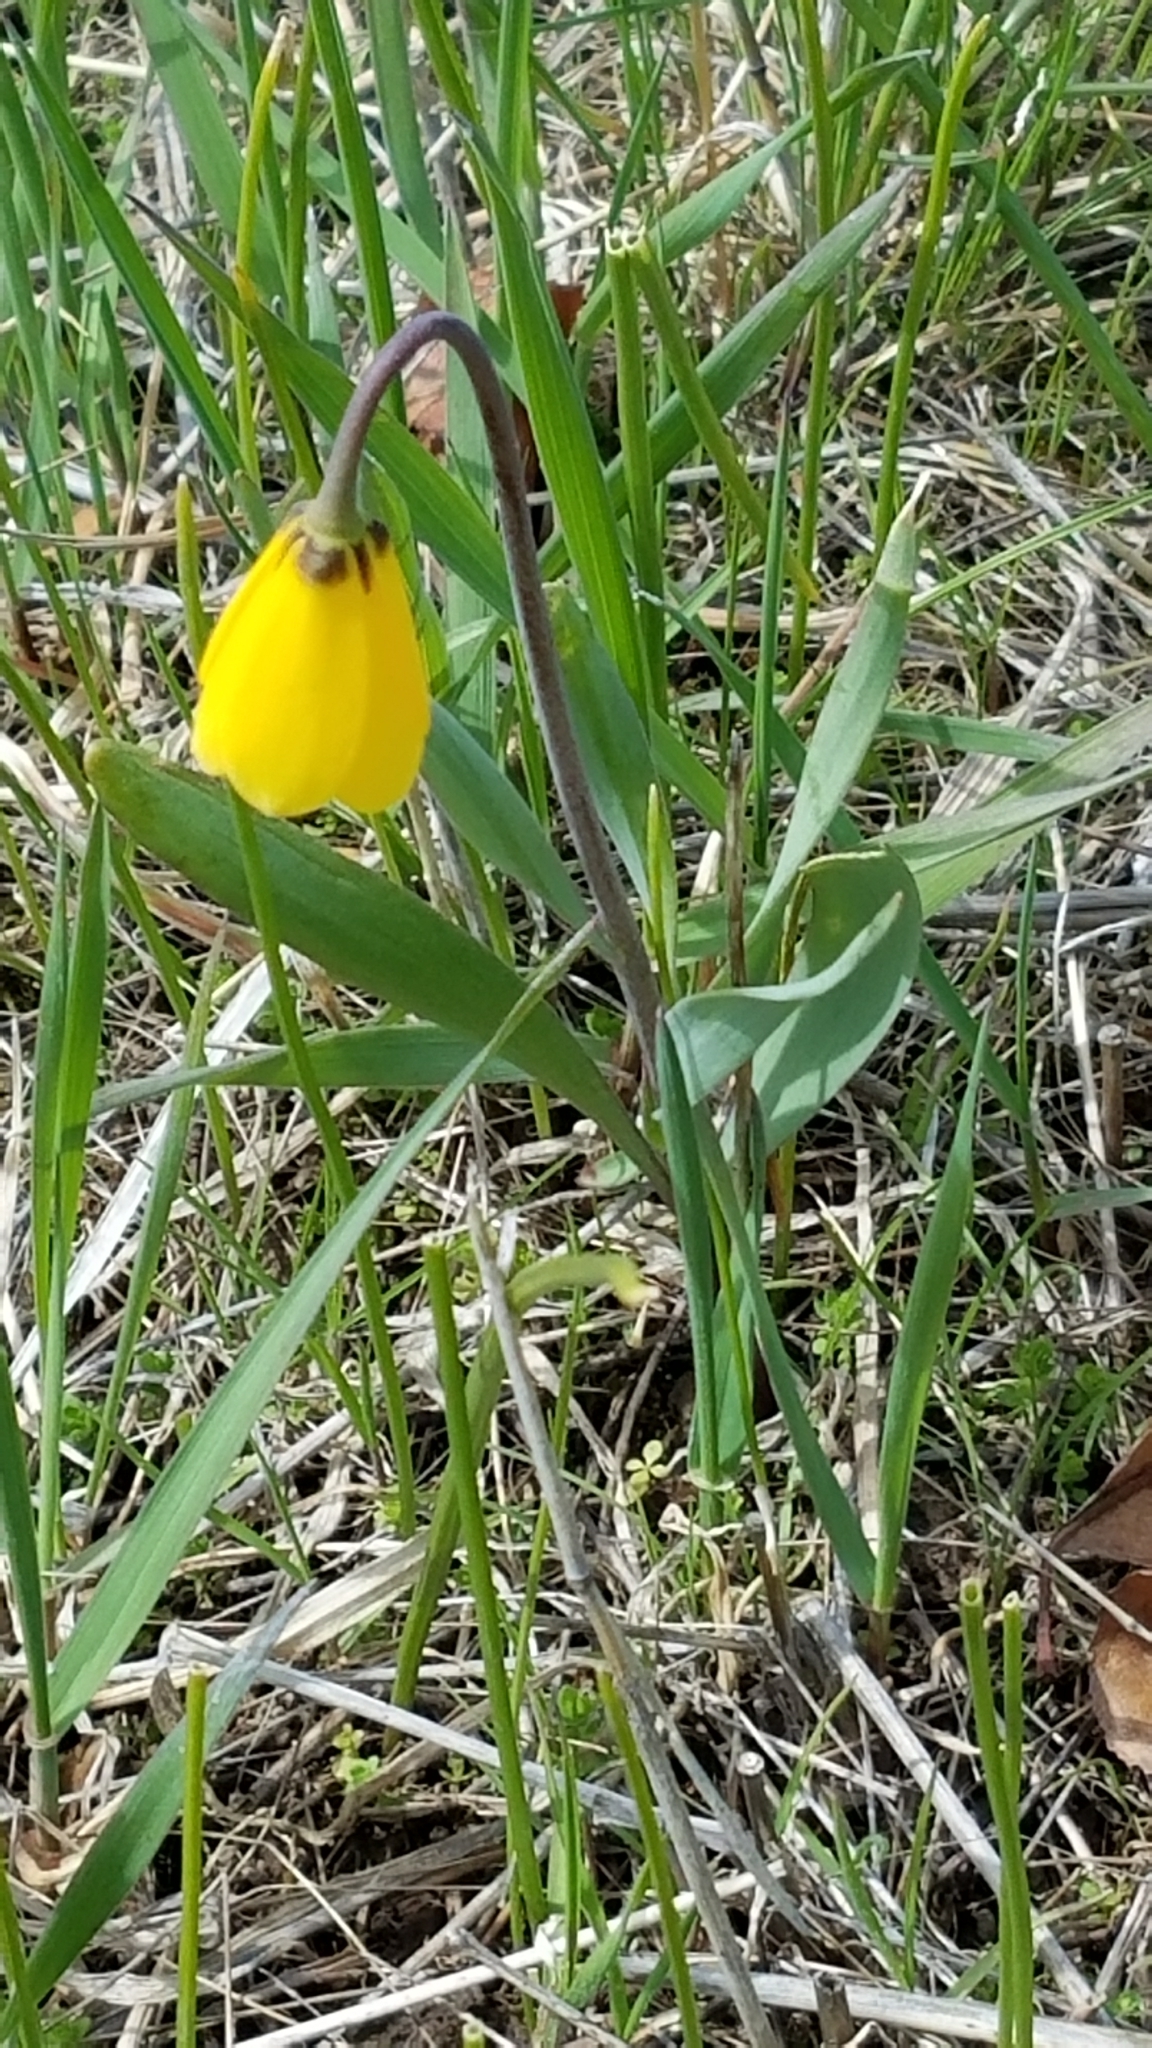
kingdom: Plantae
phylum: Tracheophyta
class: Liliopsida
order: Liliales
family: Liliaceae
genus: Fritillaria
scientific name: Fritillaria pudica
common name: Yellow fritillary
